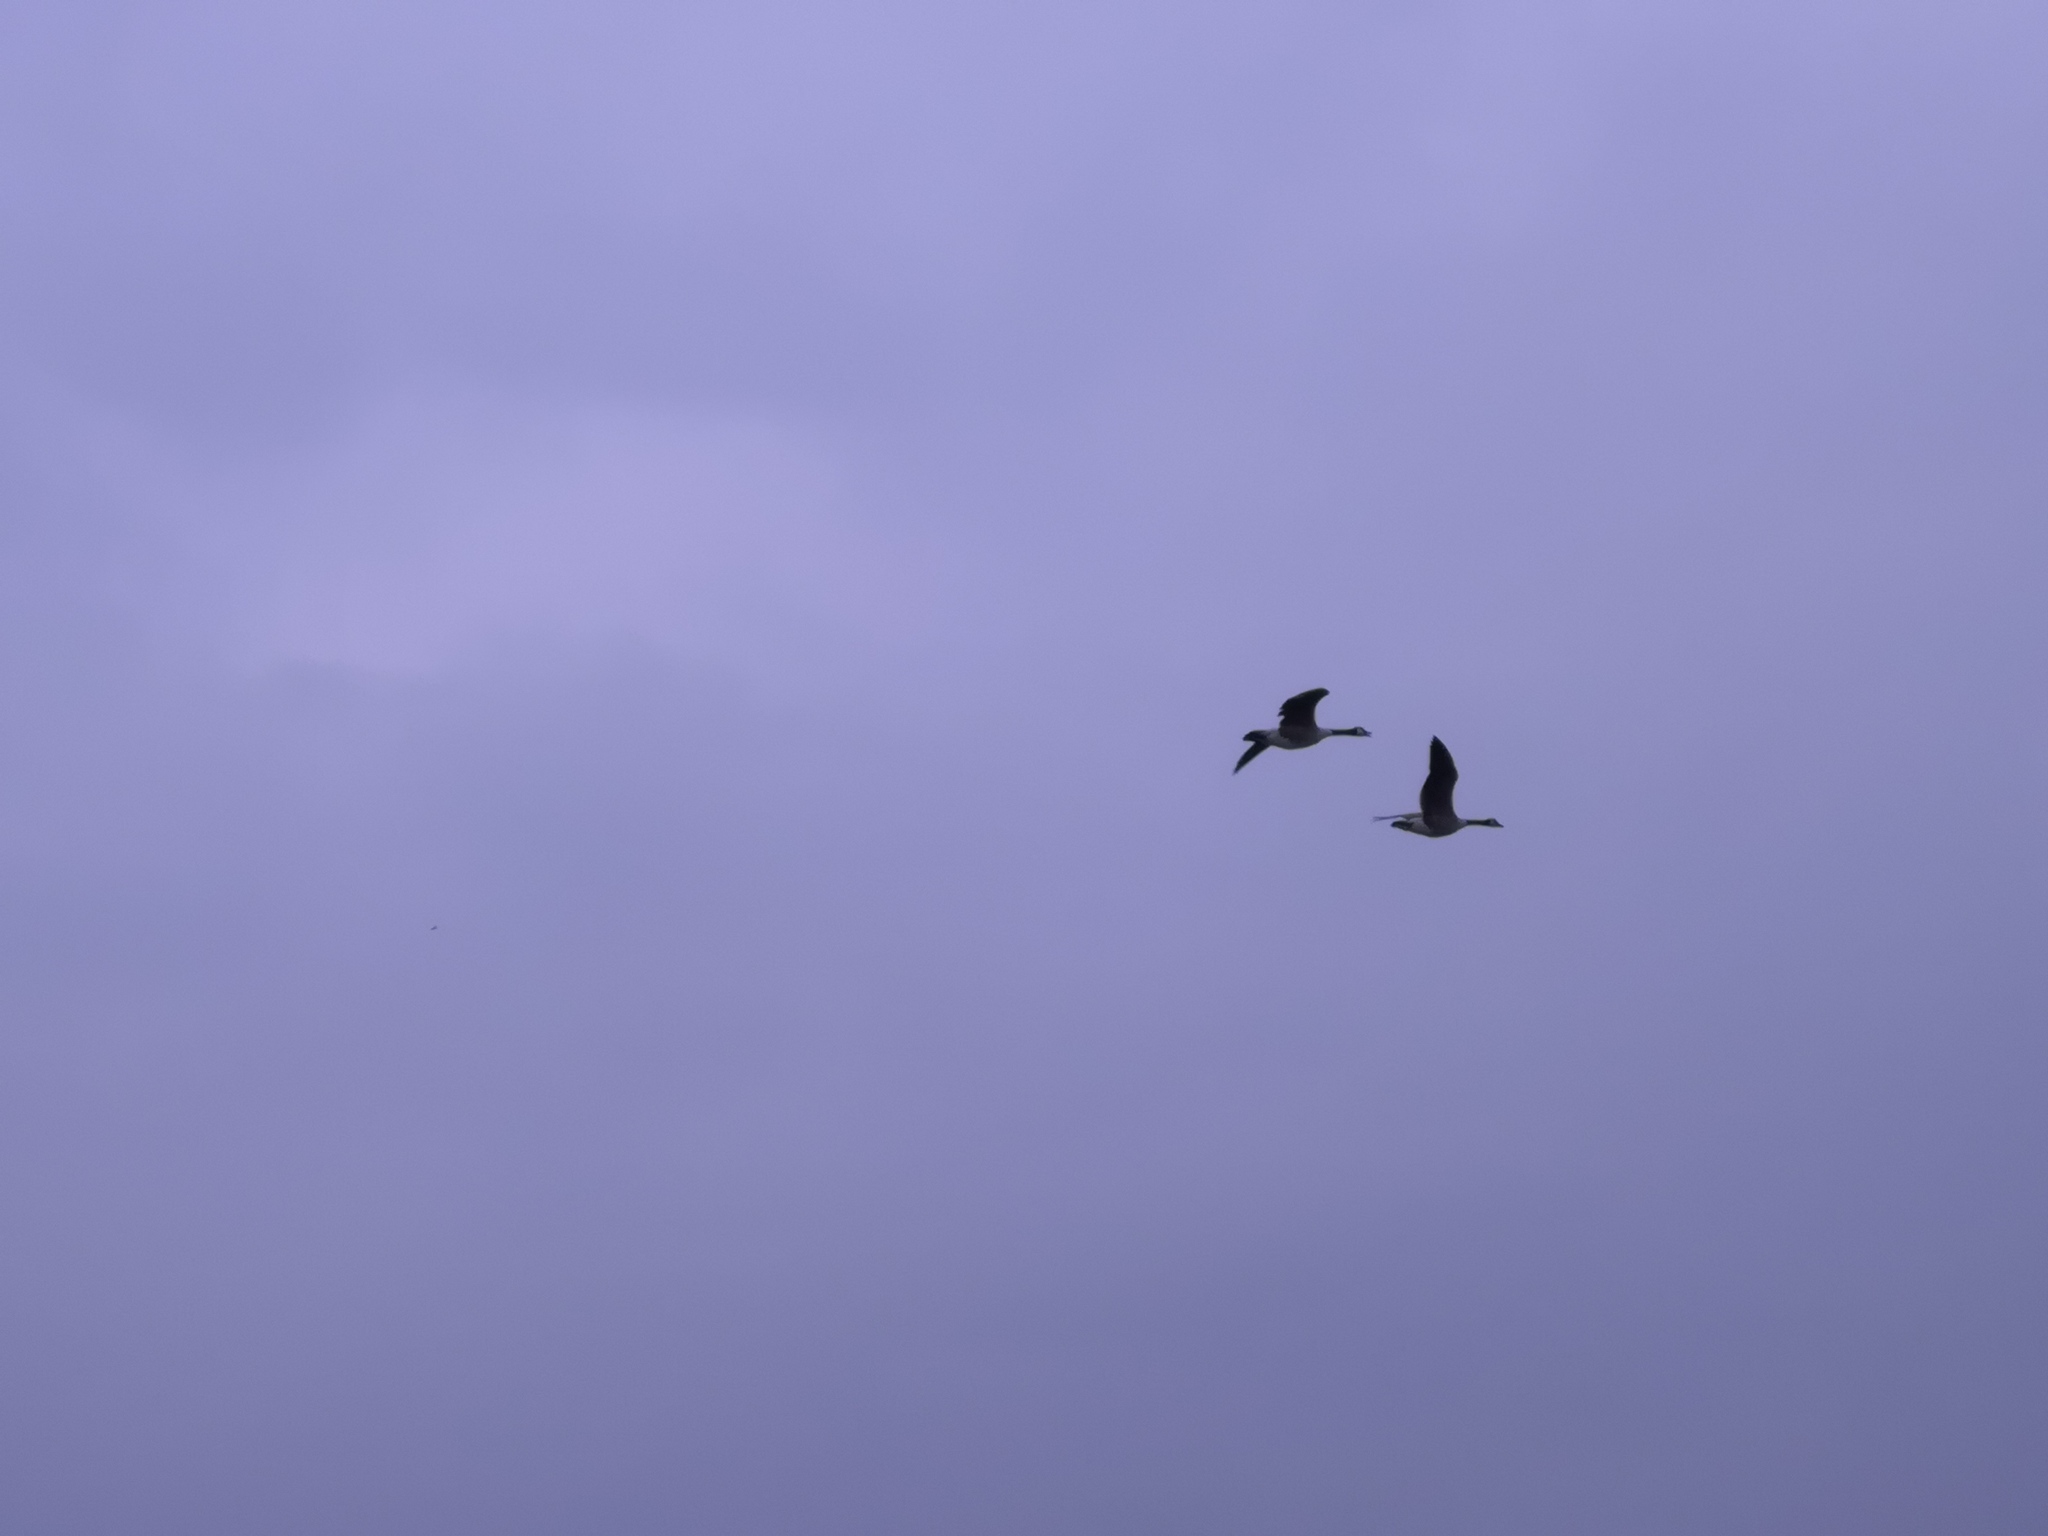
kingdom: Animalia
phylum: Chordata
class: Aves
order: Anseriformes
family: Anatidae
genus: Branta
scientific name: Branta canadensis
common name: Canada goose
